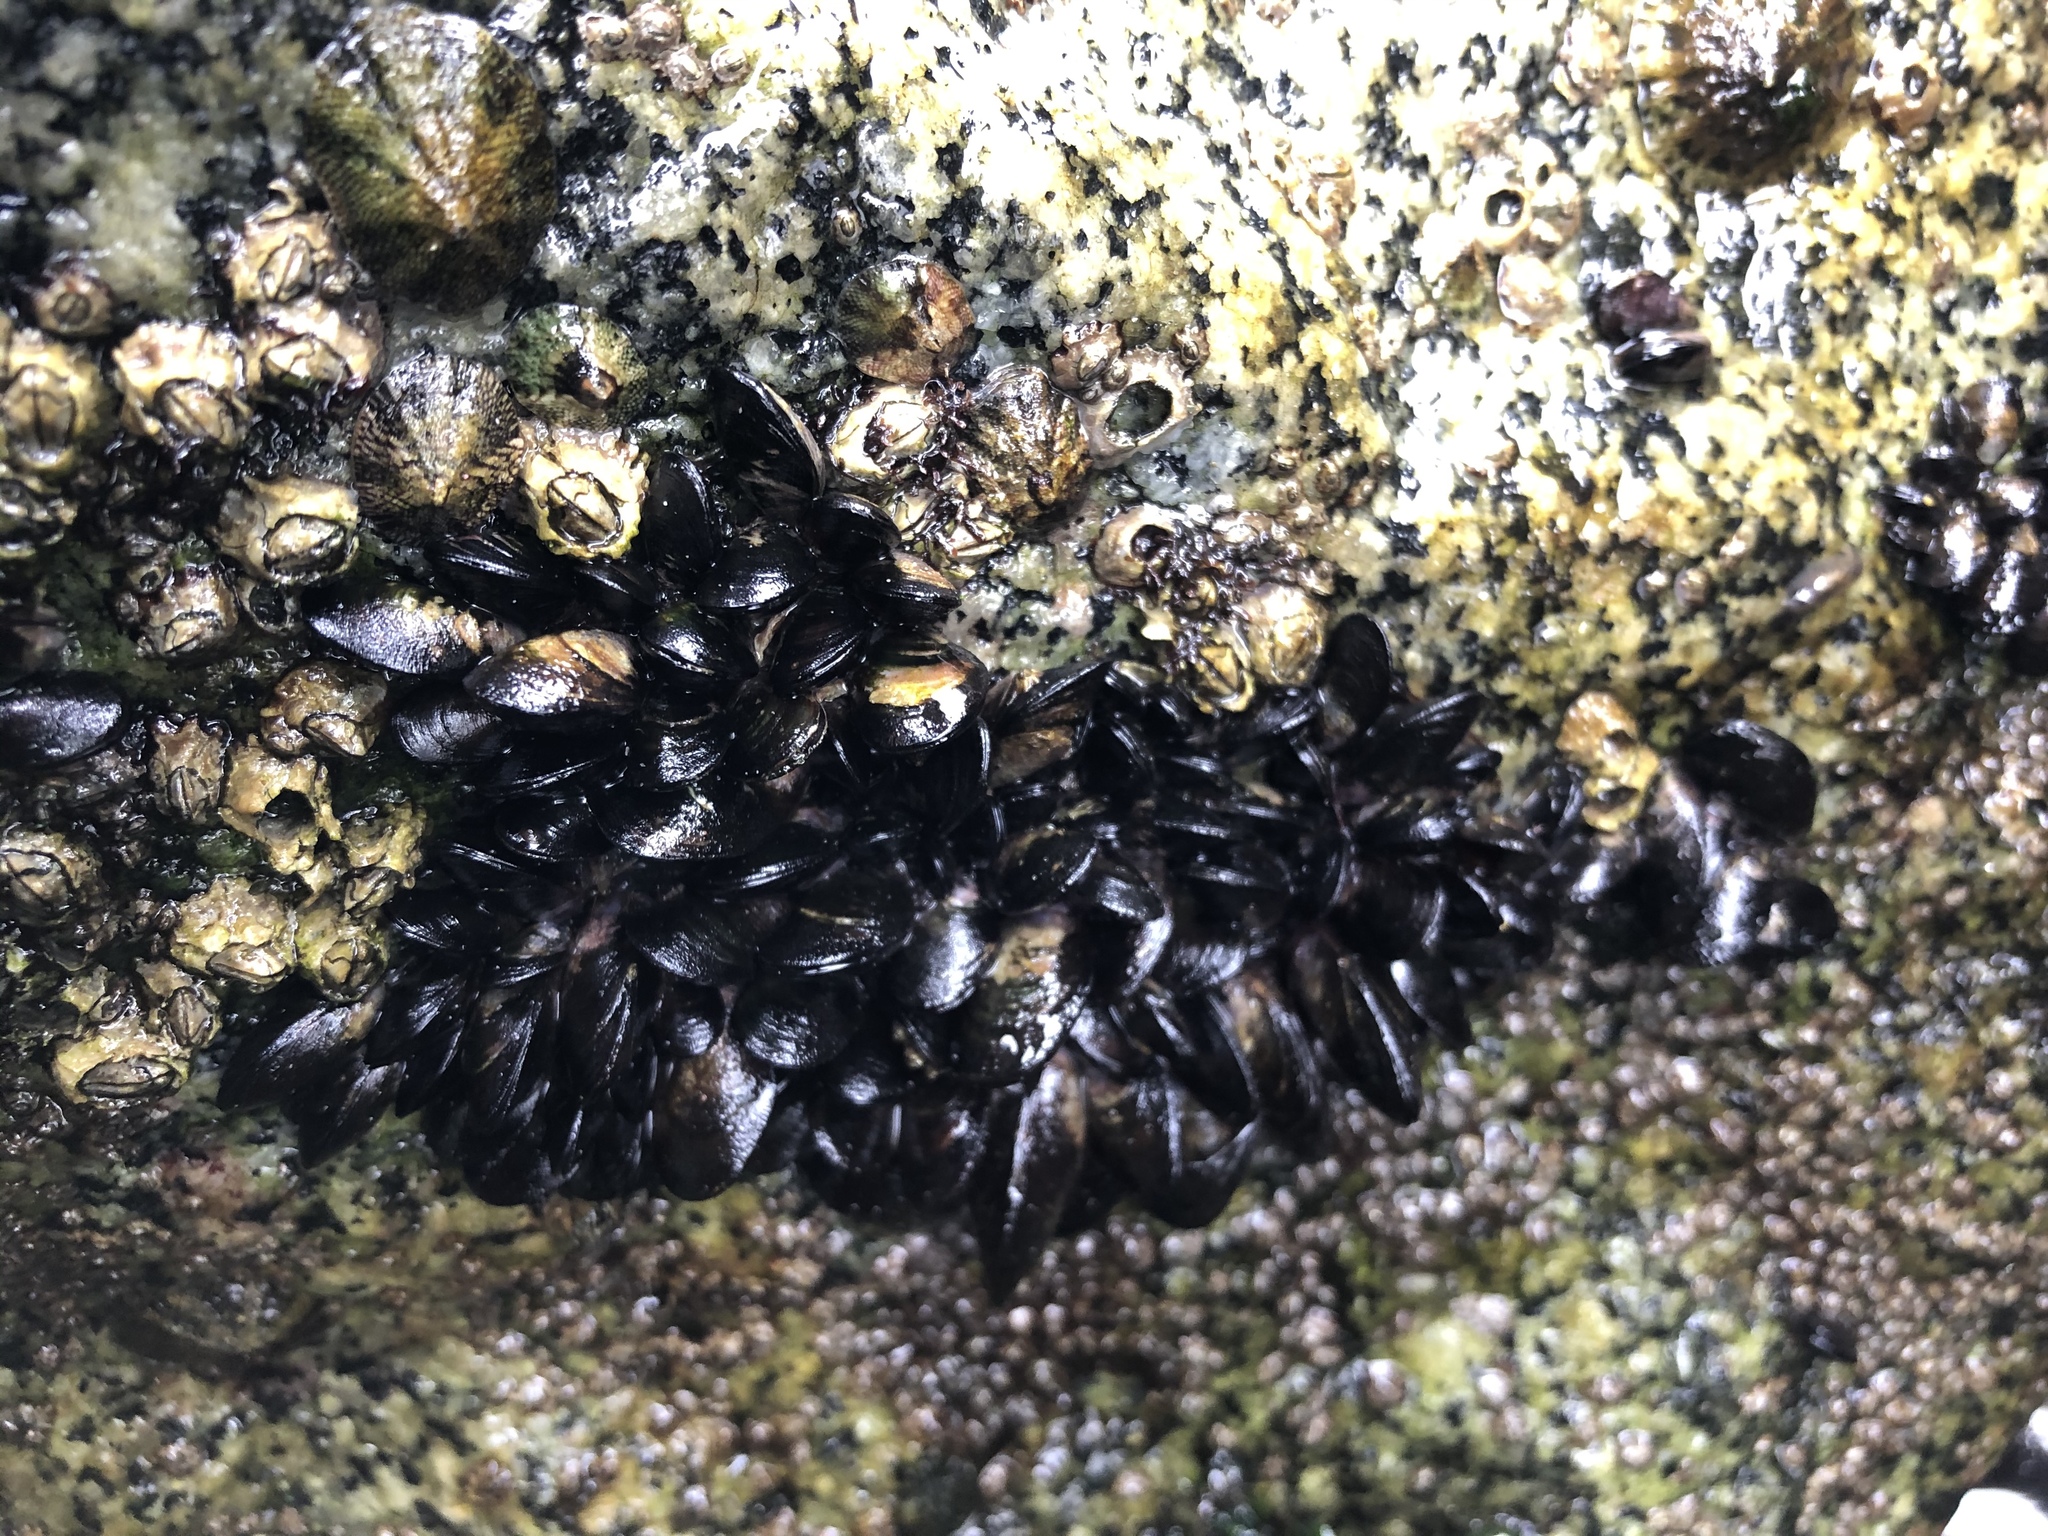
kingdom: Animalia
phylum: Mollusca
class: Bivalvia
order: Mytilida
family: Mytilidae
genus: Semimytilus
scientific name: Semimytilus patagonicus
